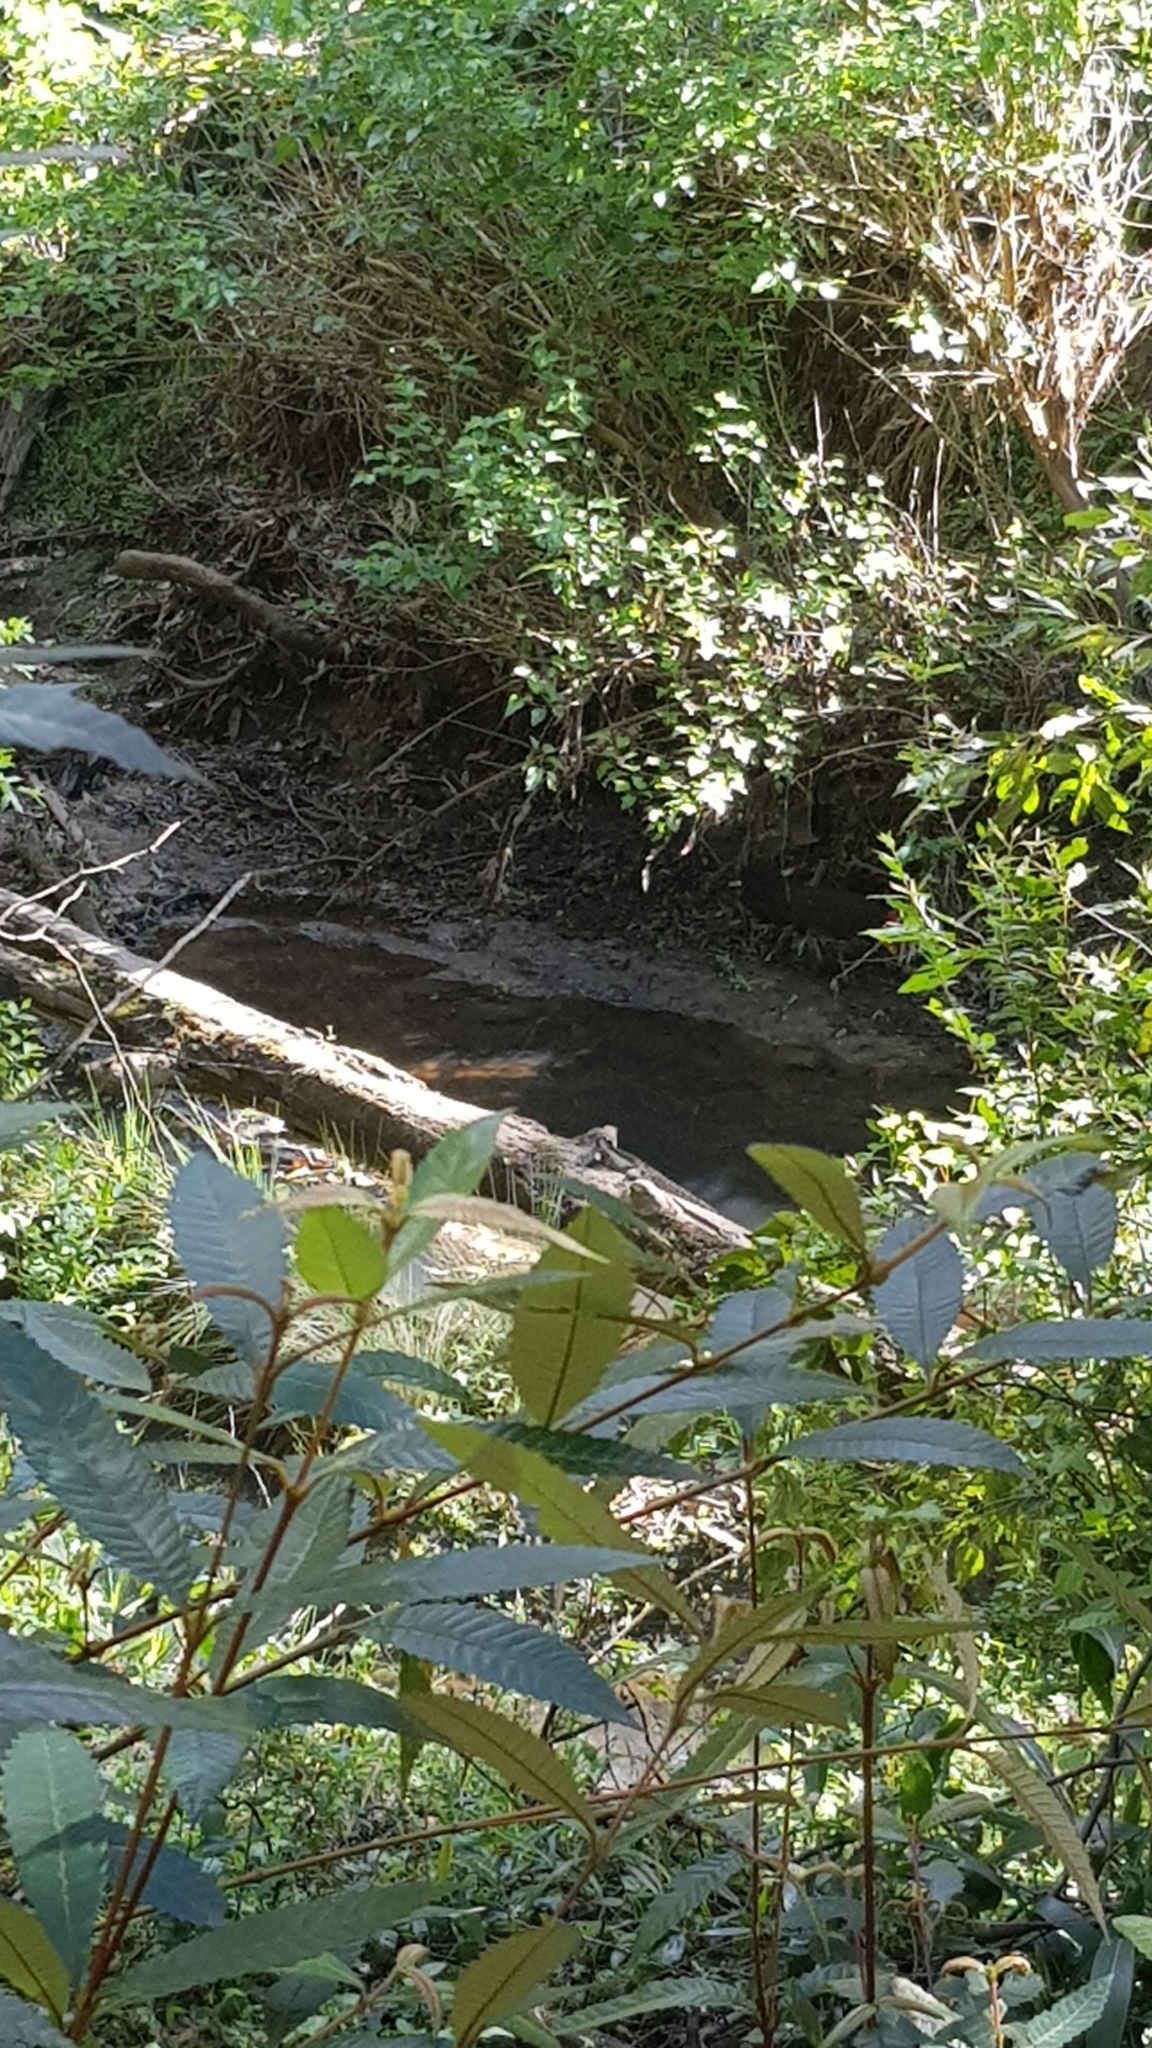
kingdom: Animalia
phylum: Chordata
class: Squamata
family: Agamidae
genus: Intellagama
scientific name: Intellagama lesueurii
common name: Eastern water dragon
